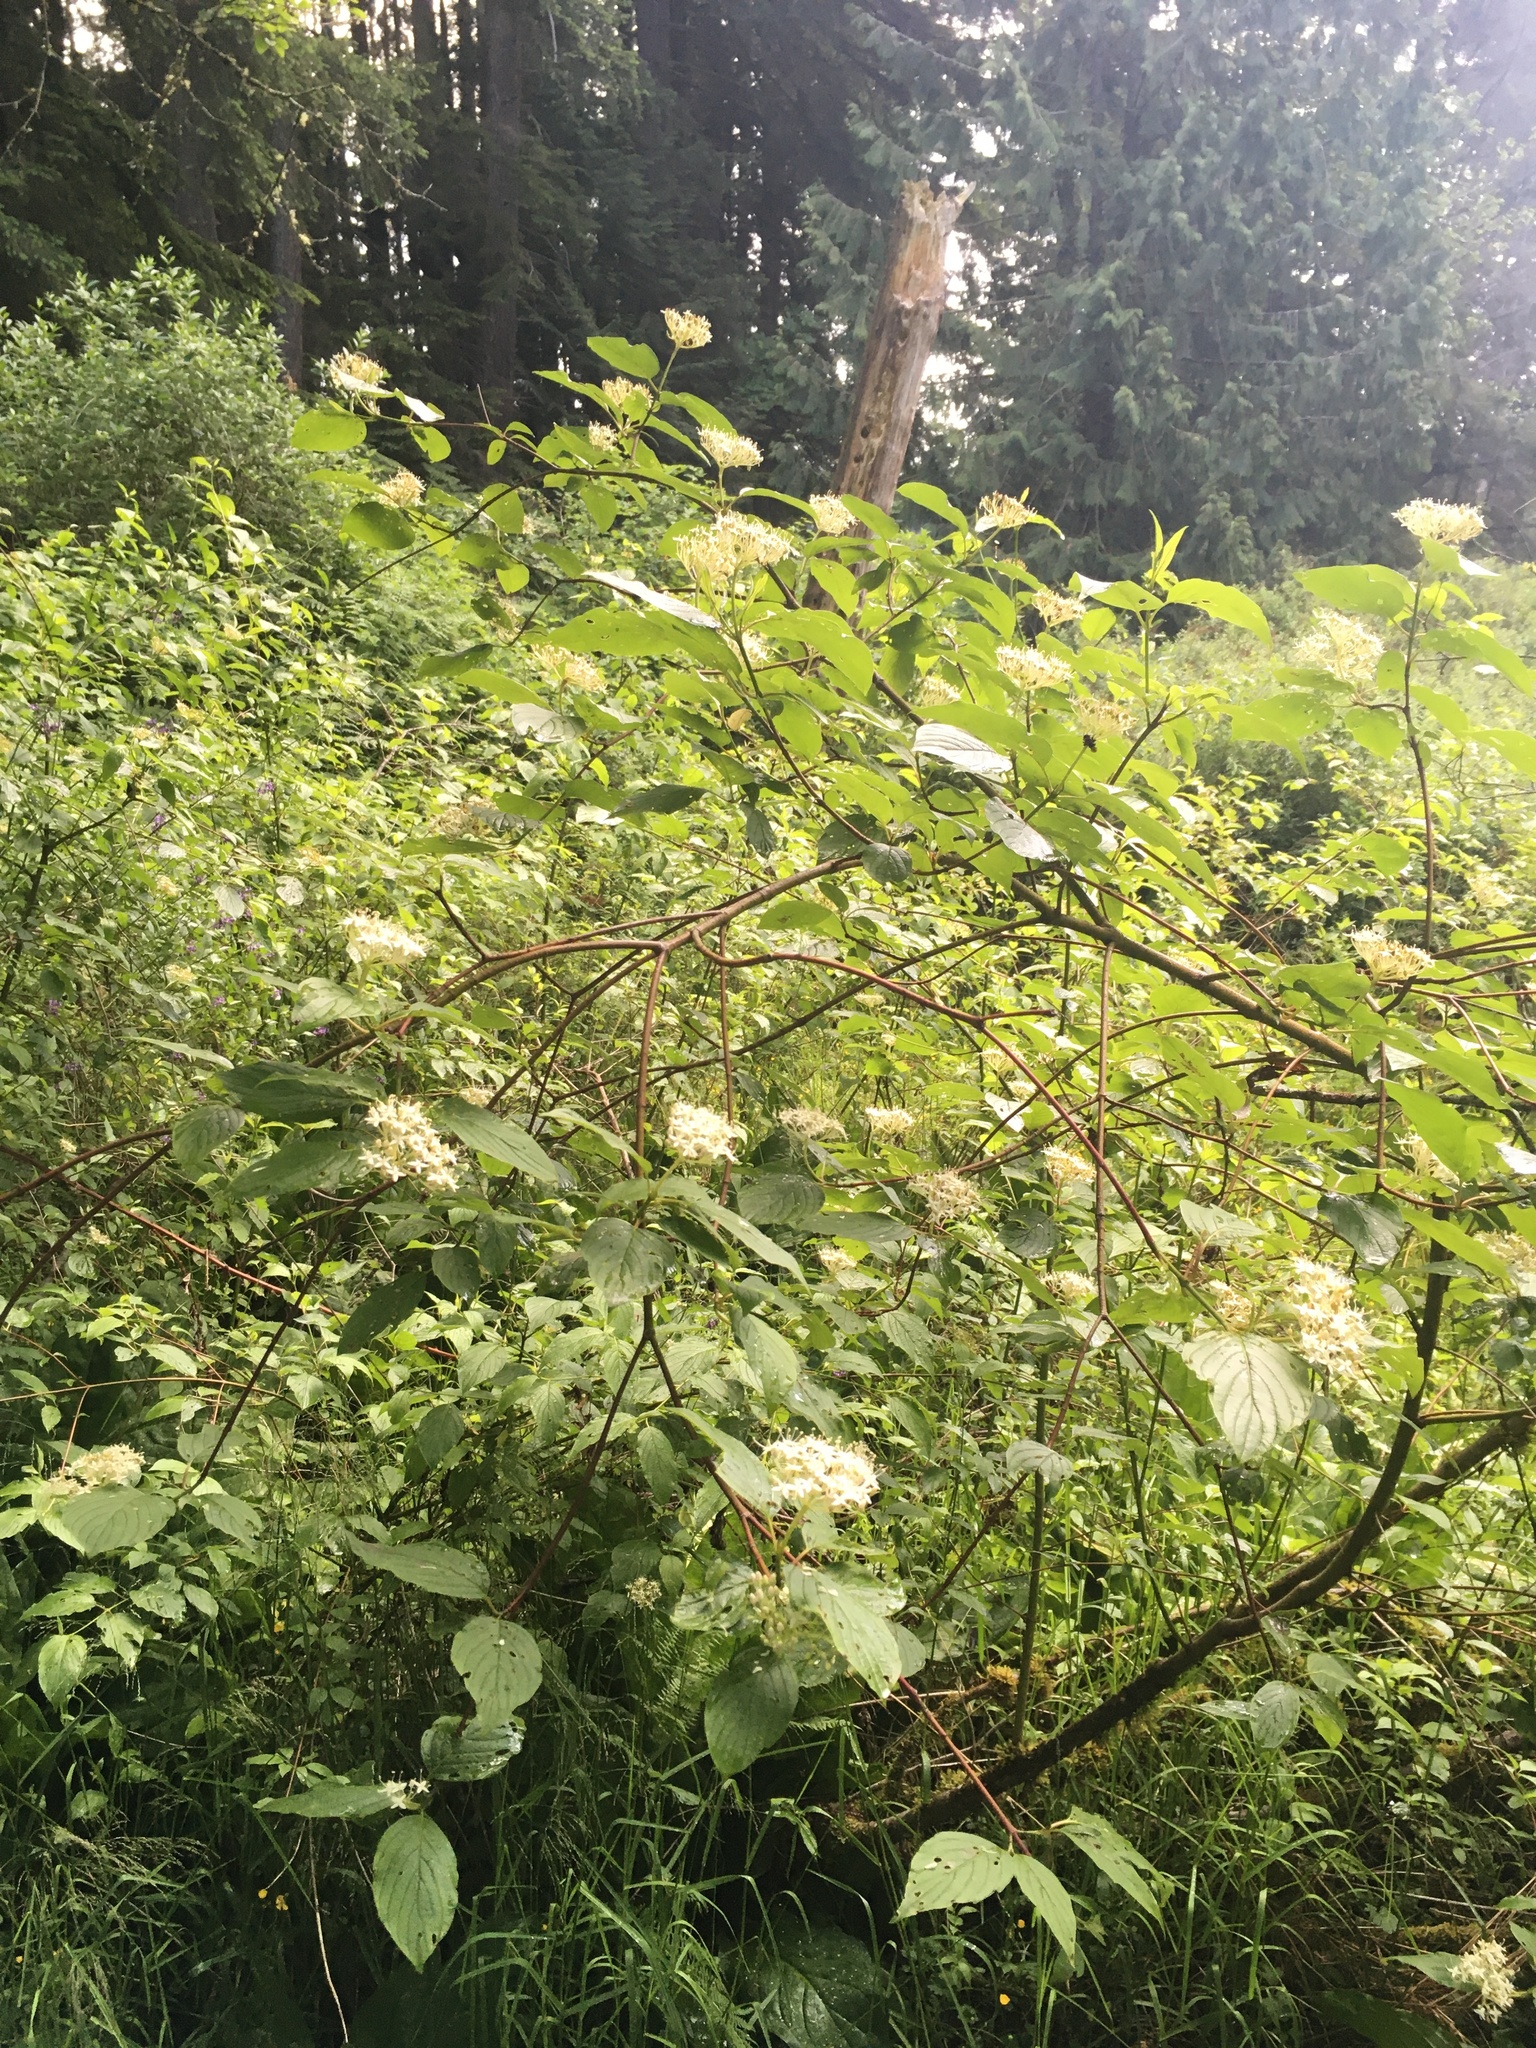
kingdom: Plantae
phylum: Tracheophyta
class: Magnoliopsida
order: Cornales
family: Cornaceae
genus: Cornus
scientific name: Cornus sericea
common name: Red-osier dogwood
